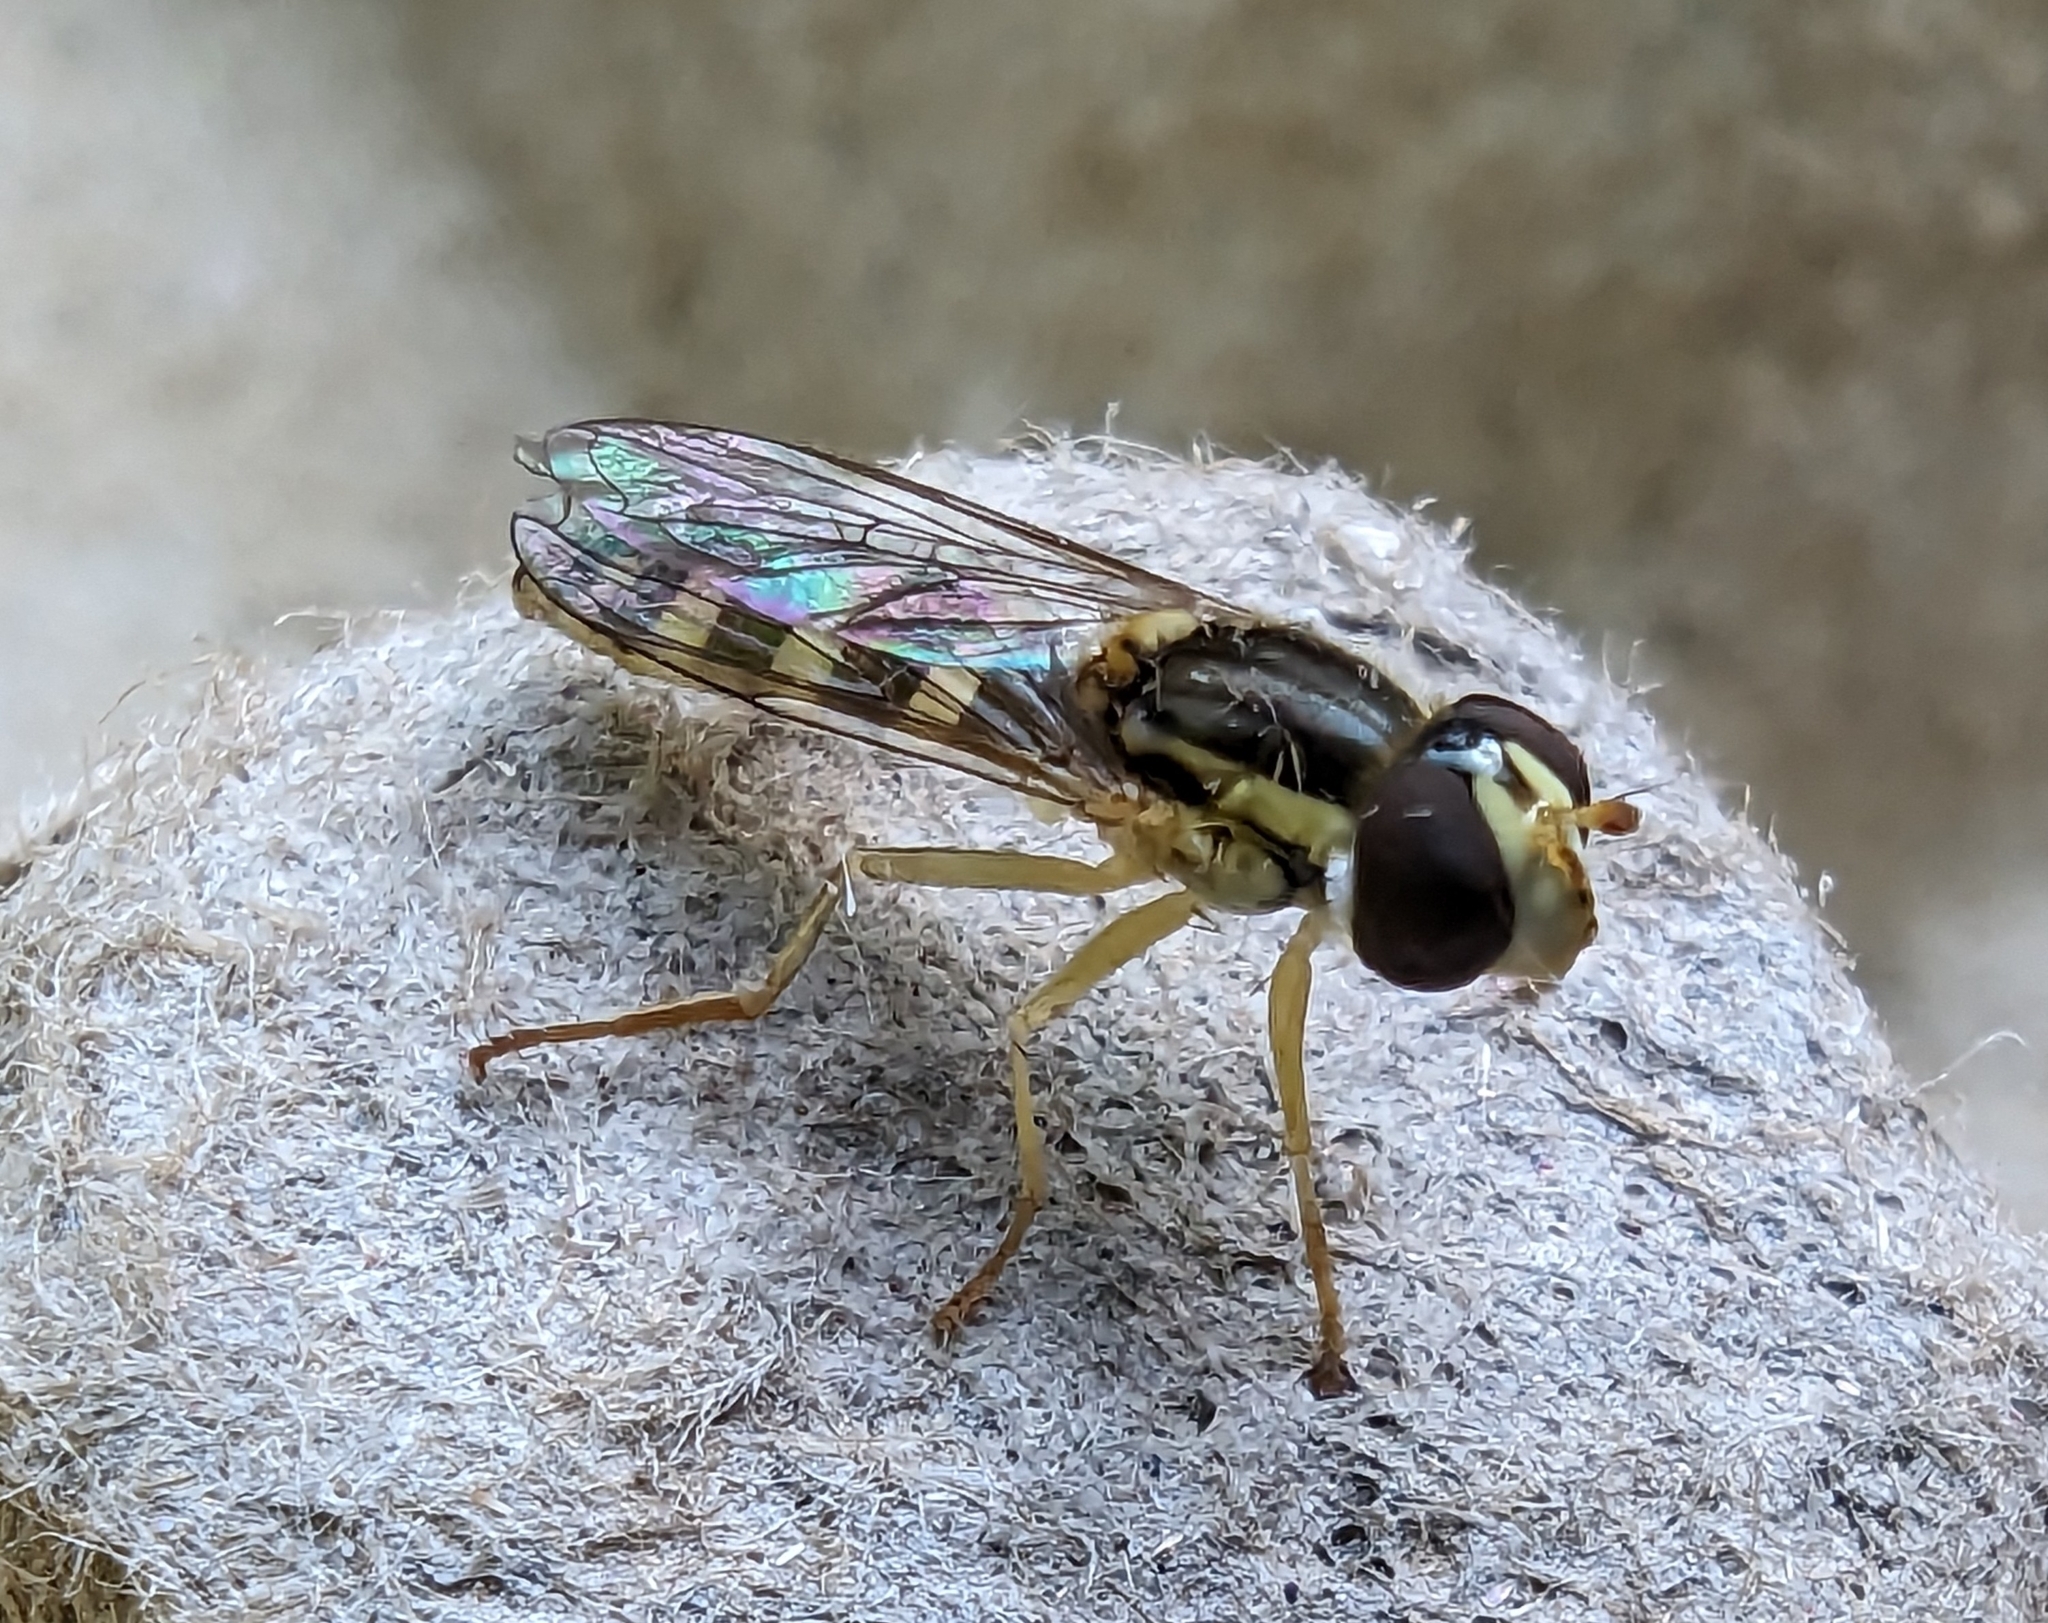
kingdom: Animalia
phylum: Arthropoda
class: Insecta
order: Diptera
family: Syrphidae
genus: Sphaerophoria
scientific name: Sphaerophoria
